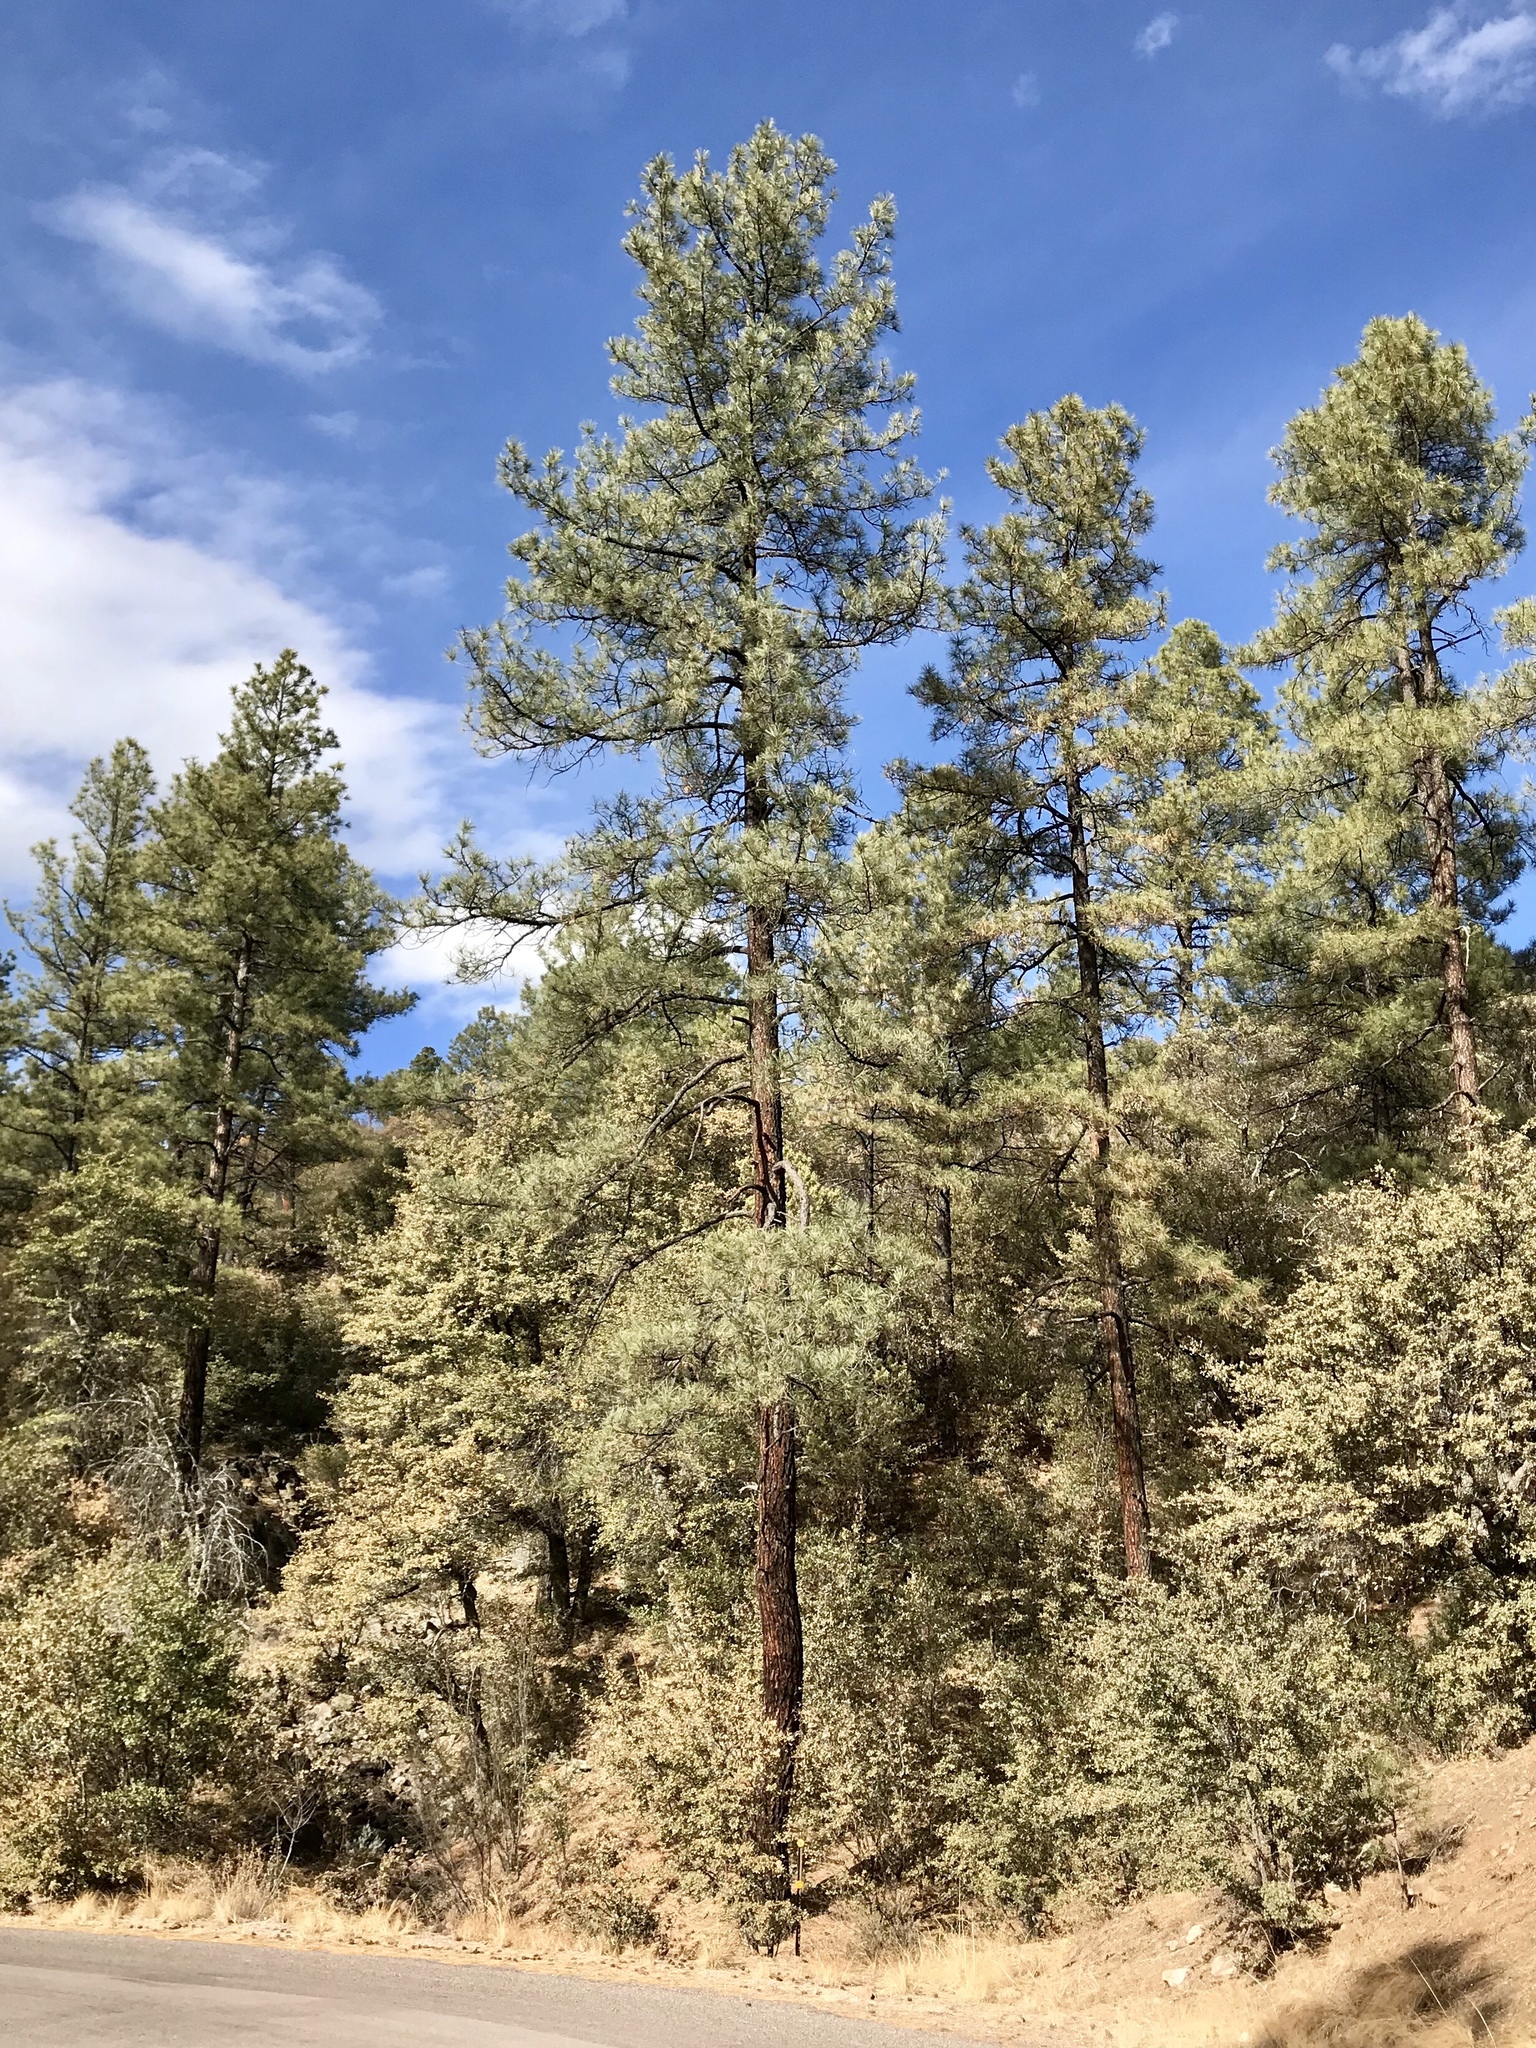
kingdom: Plantae
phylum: Tracheophyta
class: Pinopsida
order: Pinales
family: Pinaceae
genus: Pinus
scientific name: Pinus ponderosa
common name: Western yellow-pine
